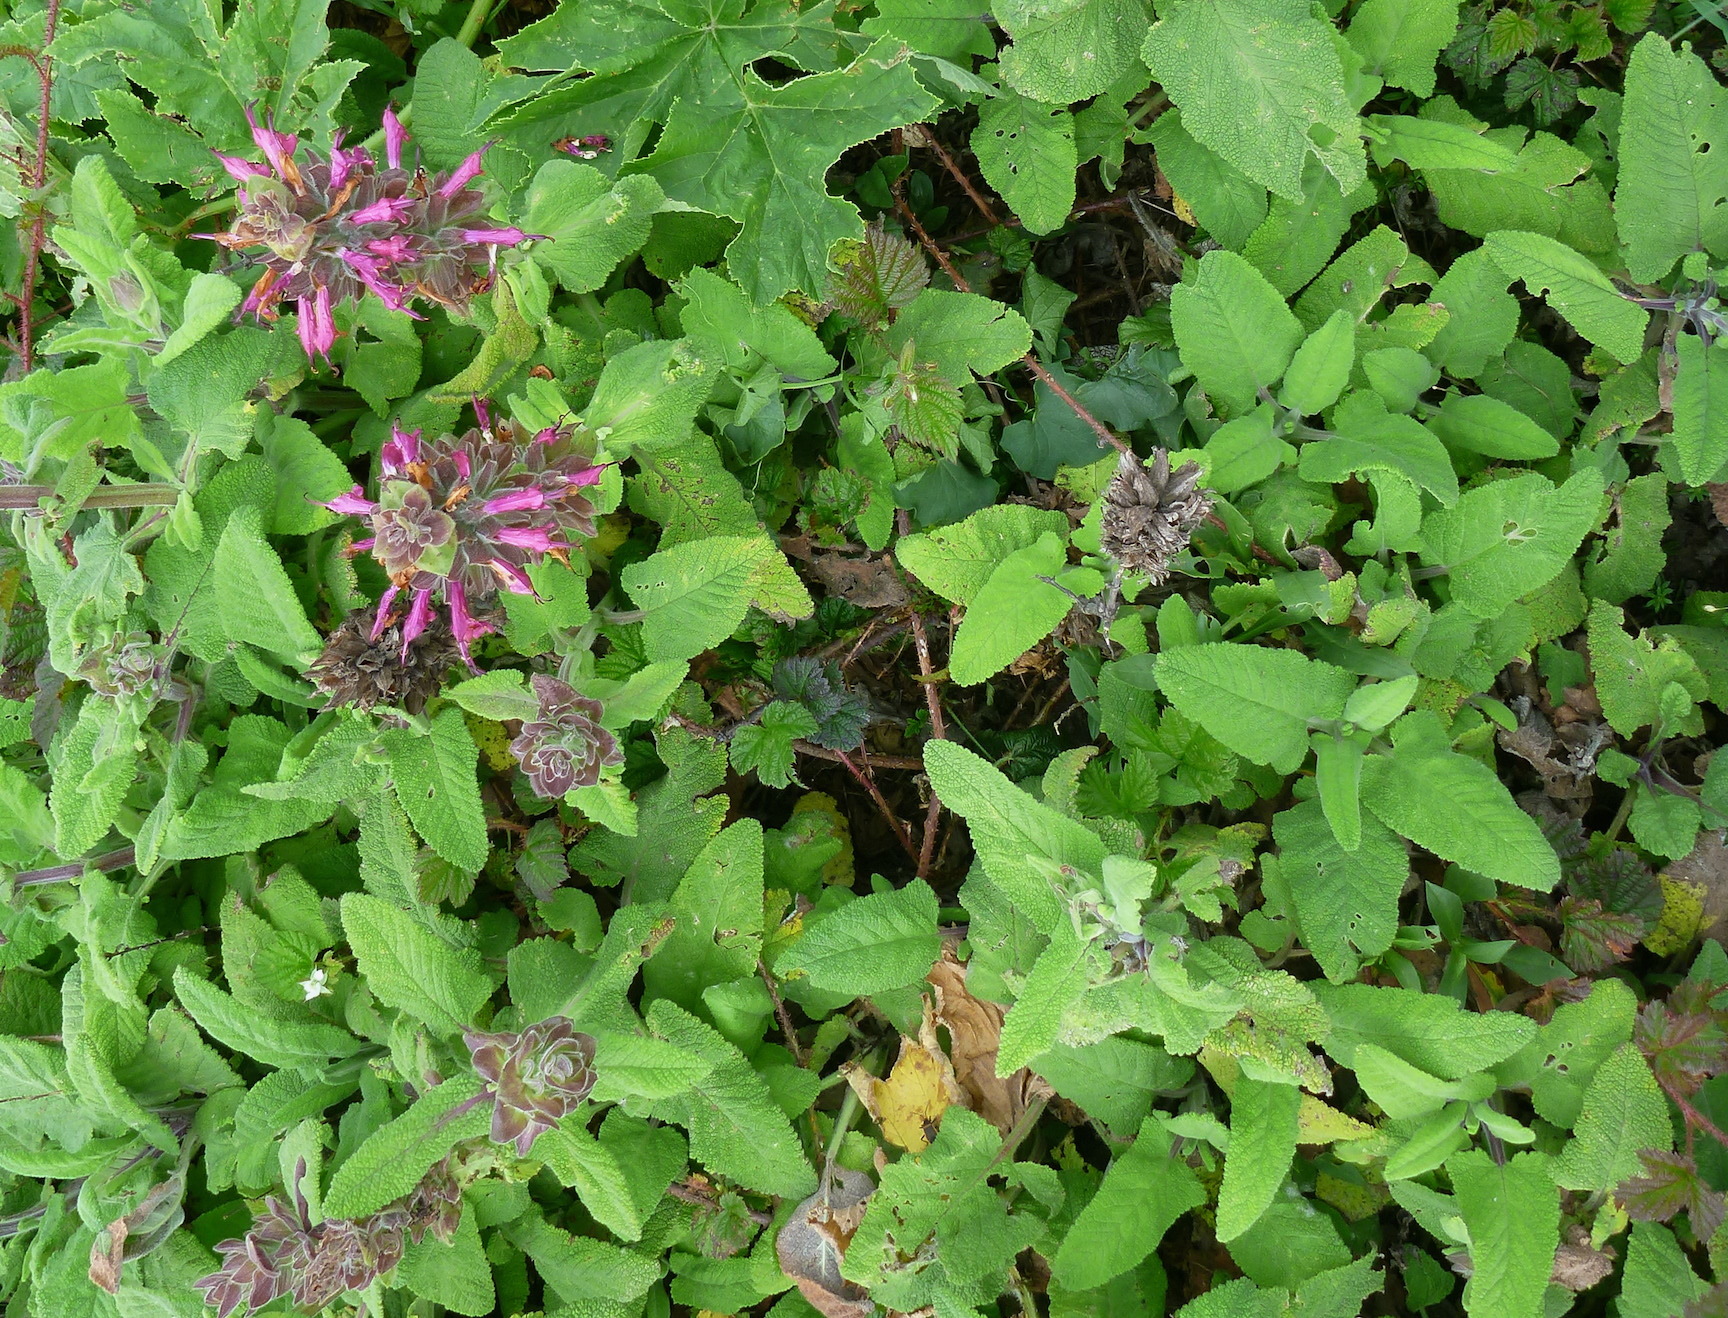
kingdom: Plantae
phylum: Tracheophyta
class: Magnoliopsida
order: Lamiales
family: Lamiaceae
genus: Salvia
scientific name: Salvia spathacea
